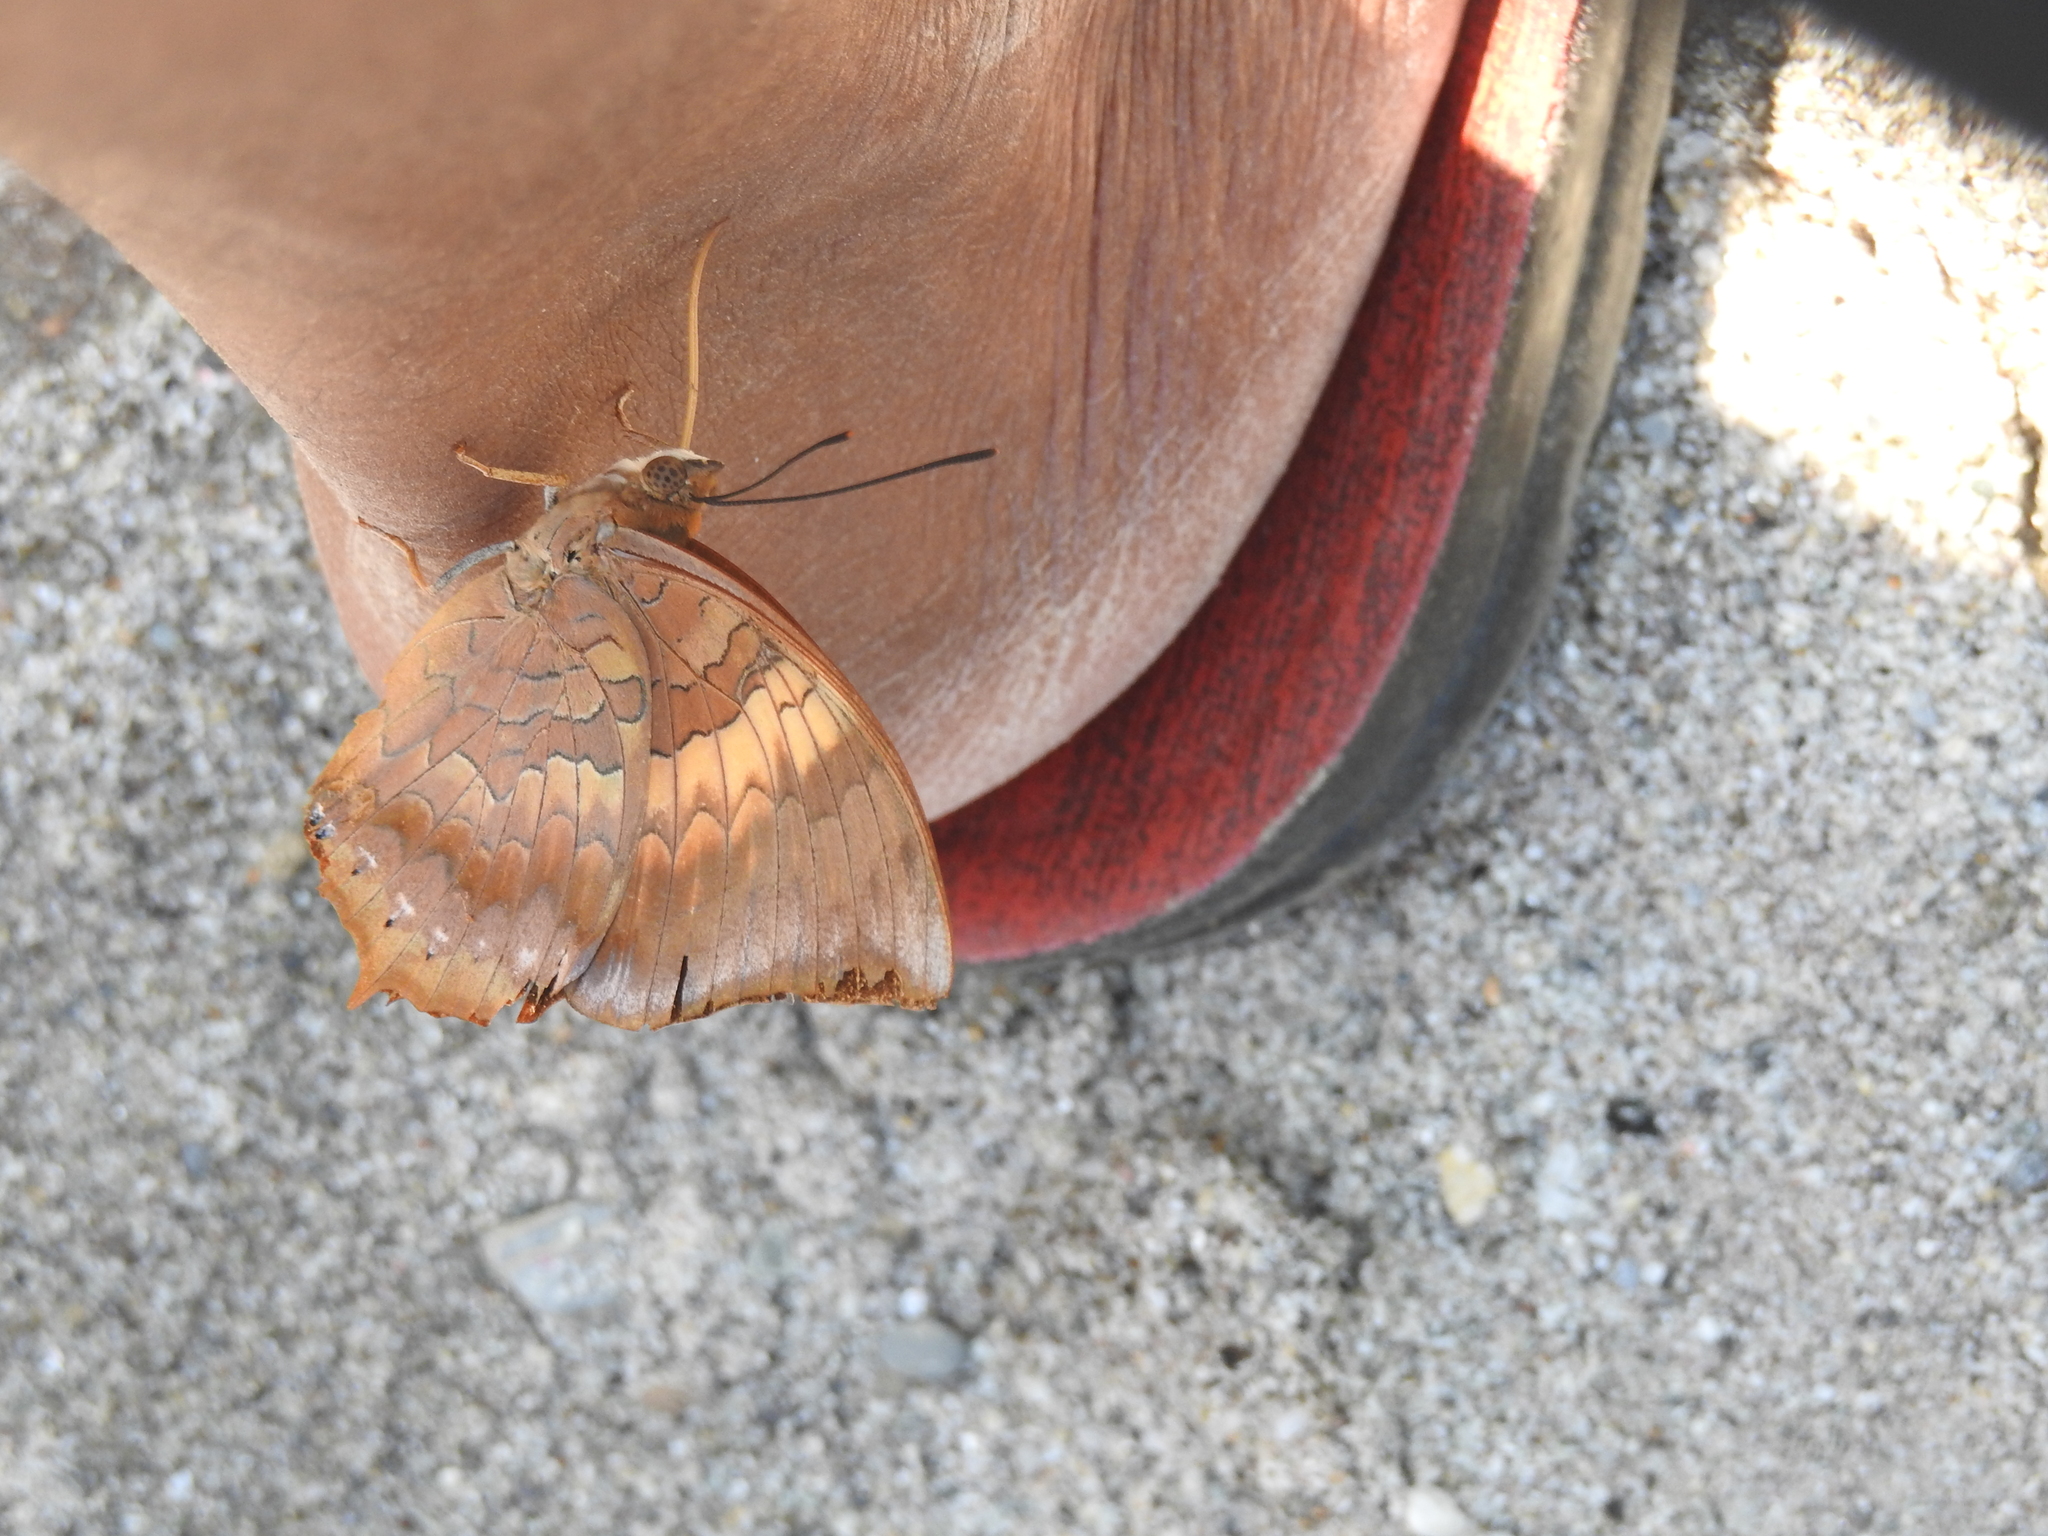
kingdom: Animalia
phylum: Arthropoda
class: Insecta
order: Lepidoptera
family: Nymphalidae
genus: Charaxes
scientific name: Charaxes bernardus
